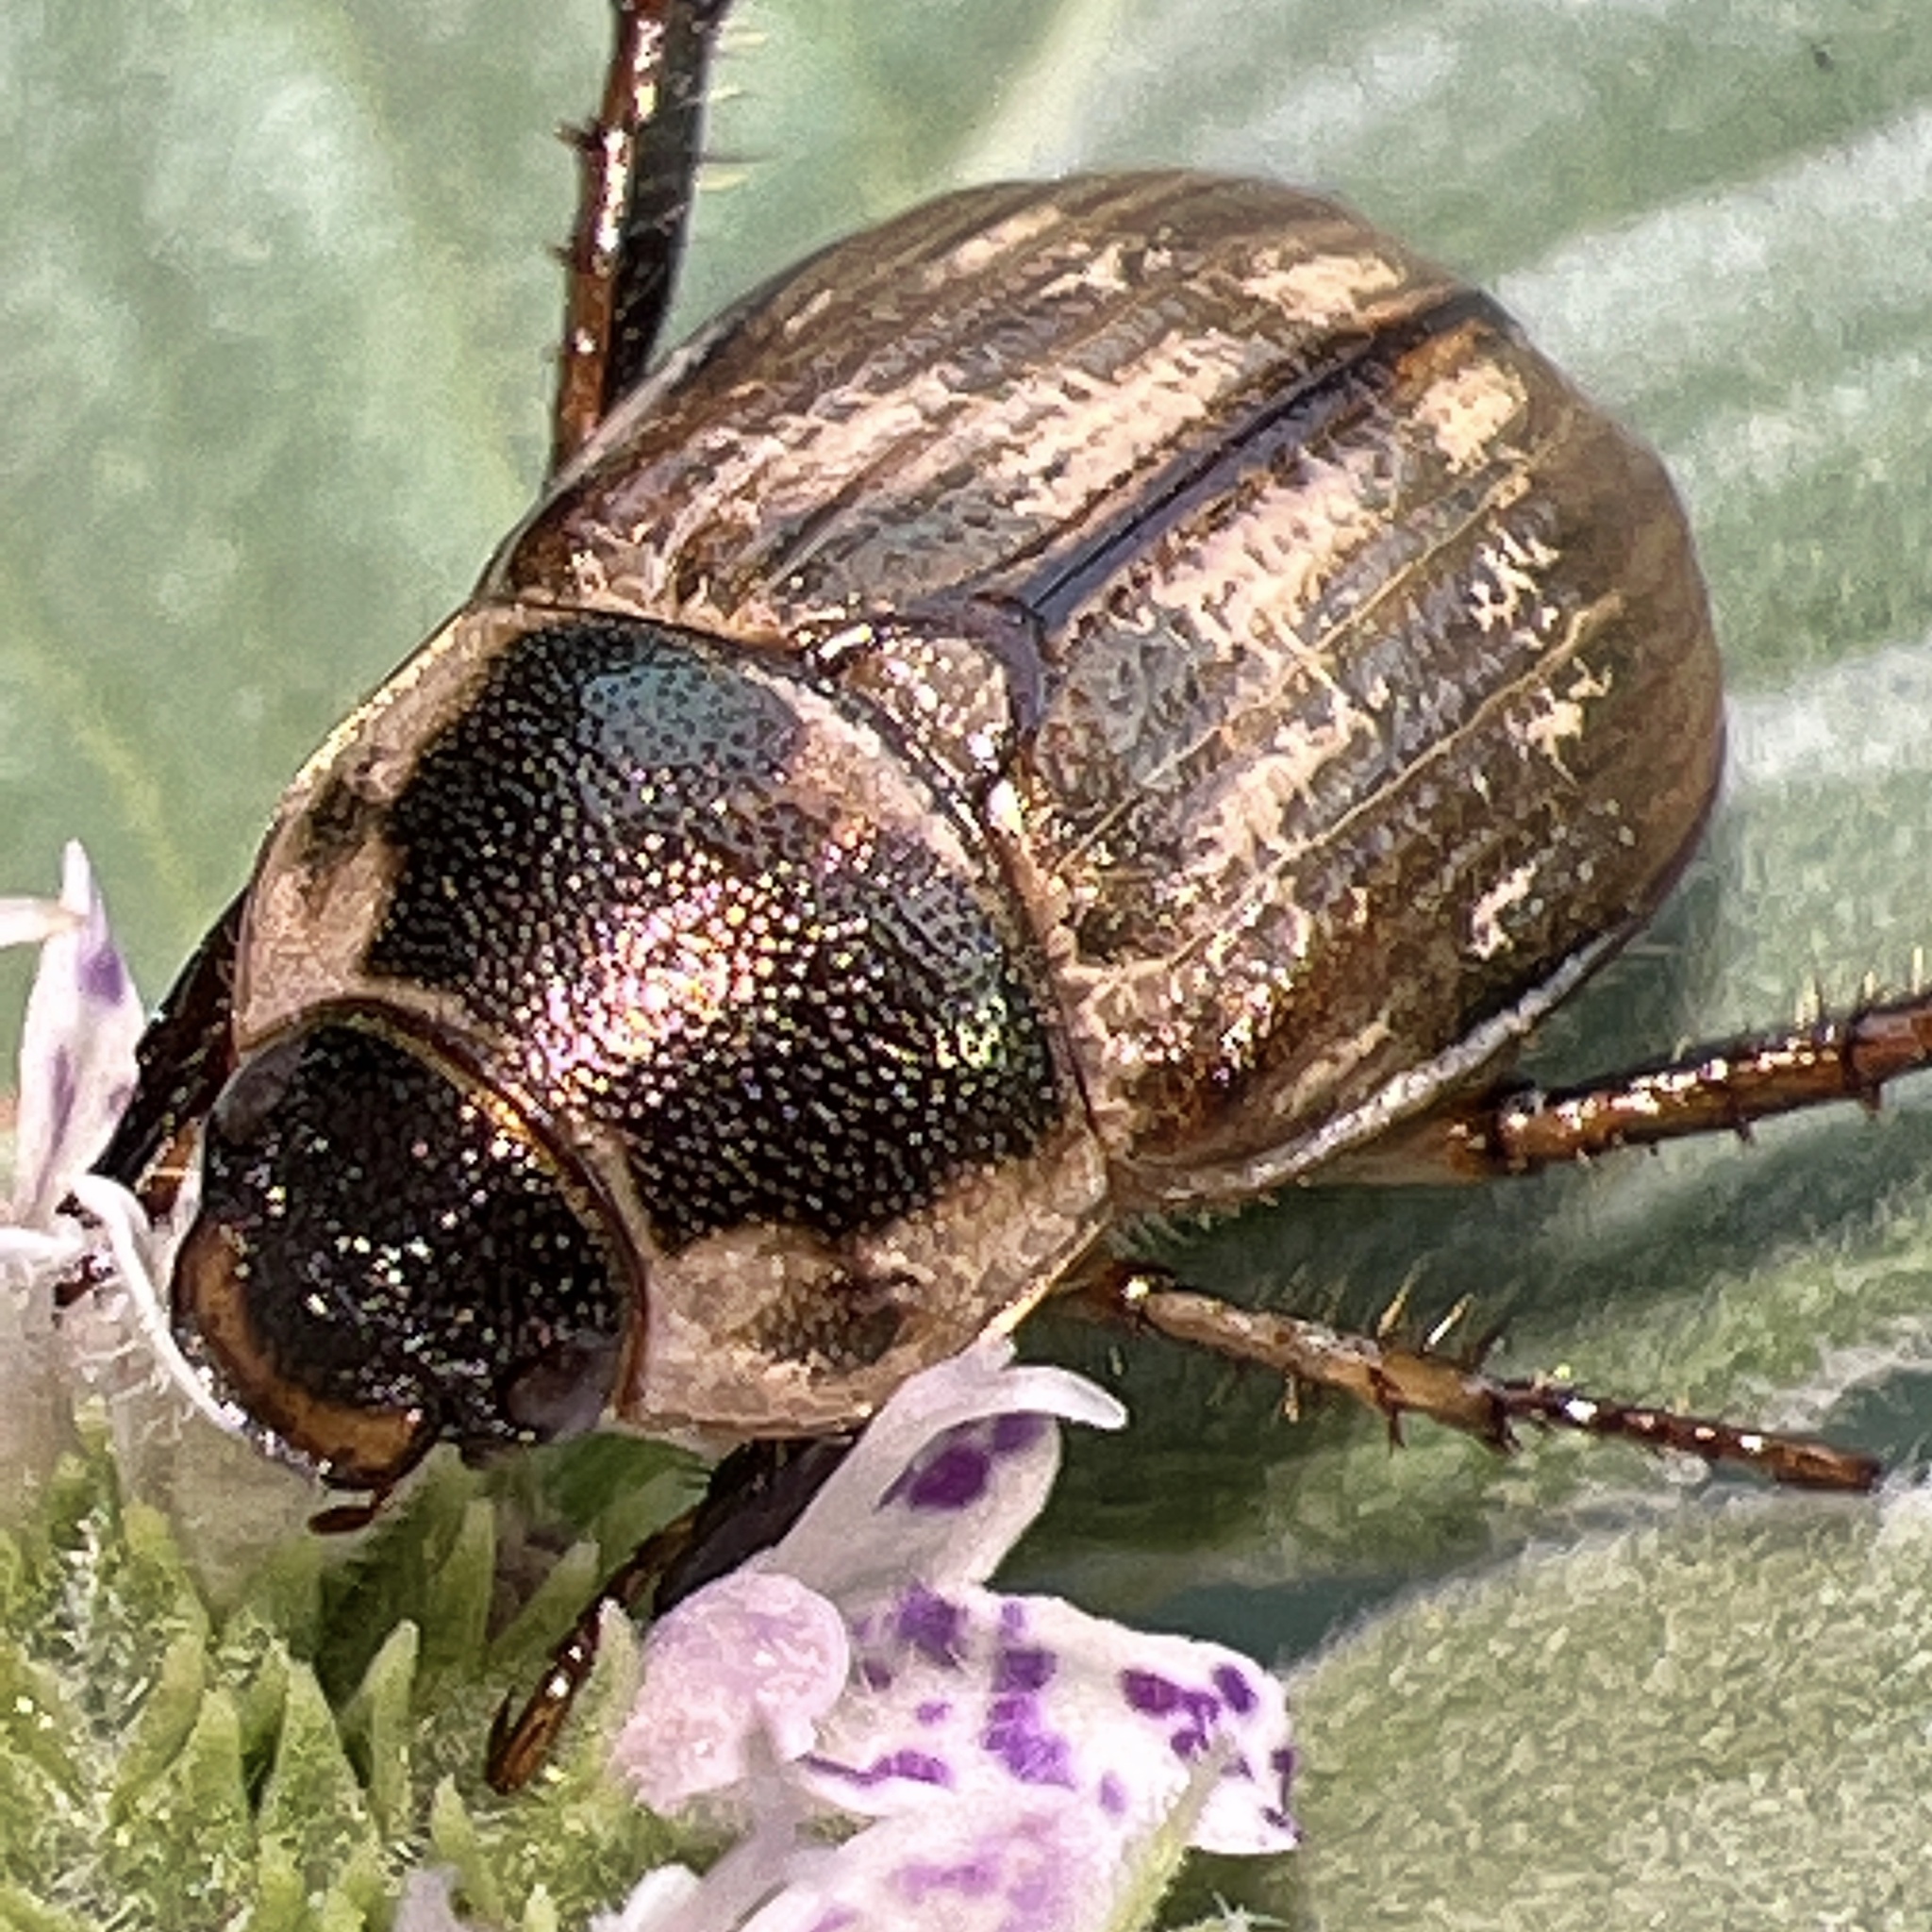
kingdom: Animalia
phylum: Arthropoda
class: Insecta
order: Coleoptera
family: Scarabaeidae
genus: Exomala
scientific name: Exomala orientalis
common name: Oriental beetle
